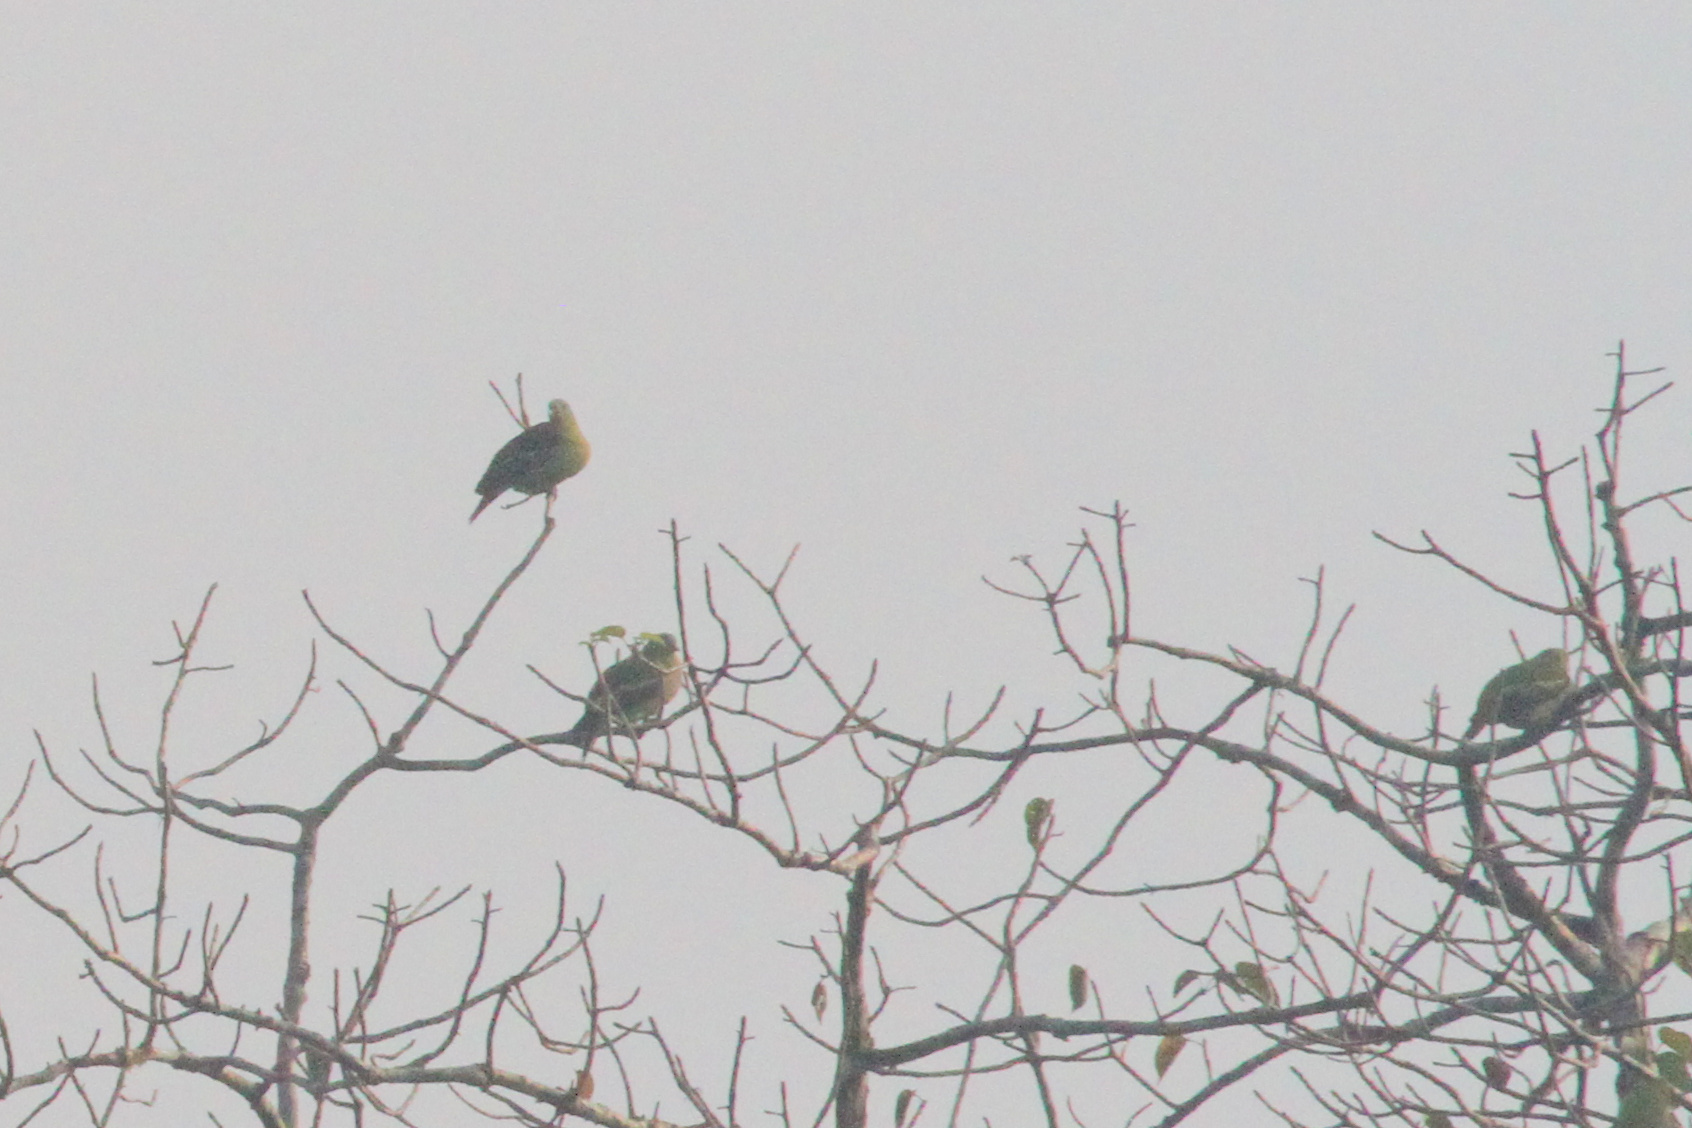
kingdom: Animalia
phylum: Chordata
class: Aves
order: Columbiformes
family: Columbidae
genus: Treron
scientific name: Treron affinis
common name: Grey-fronted green pigeon
